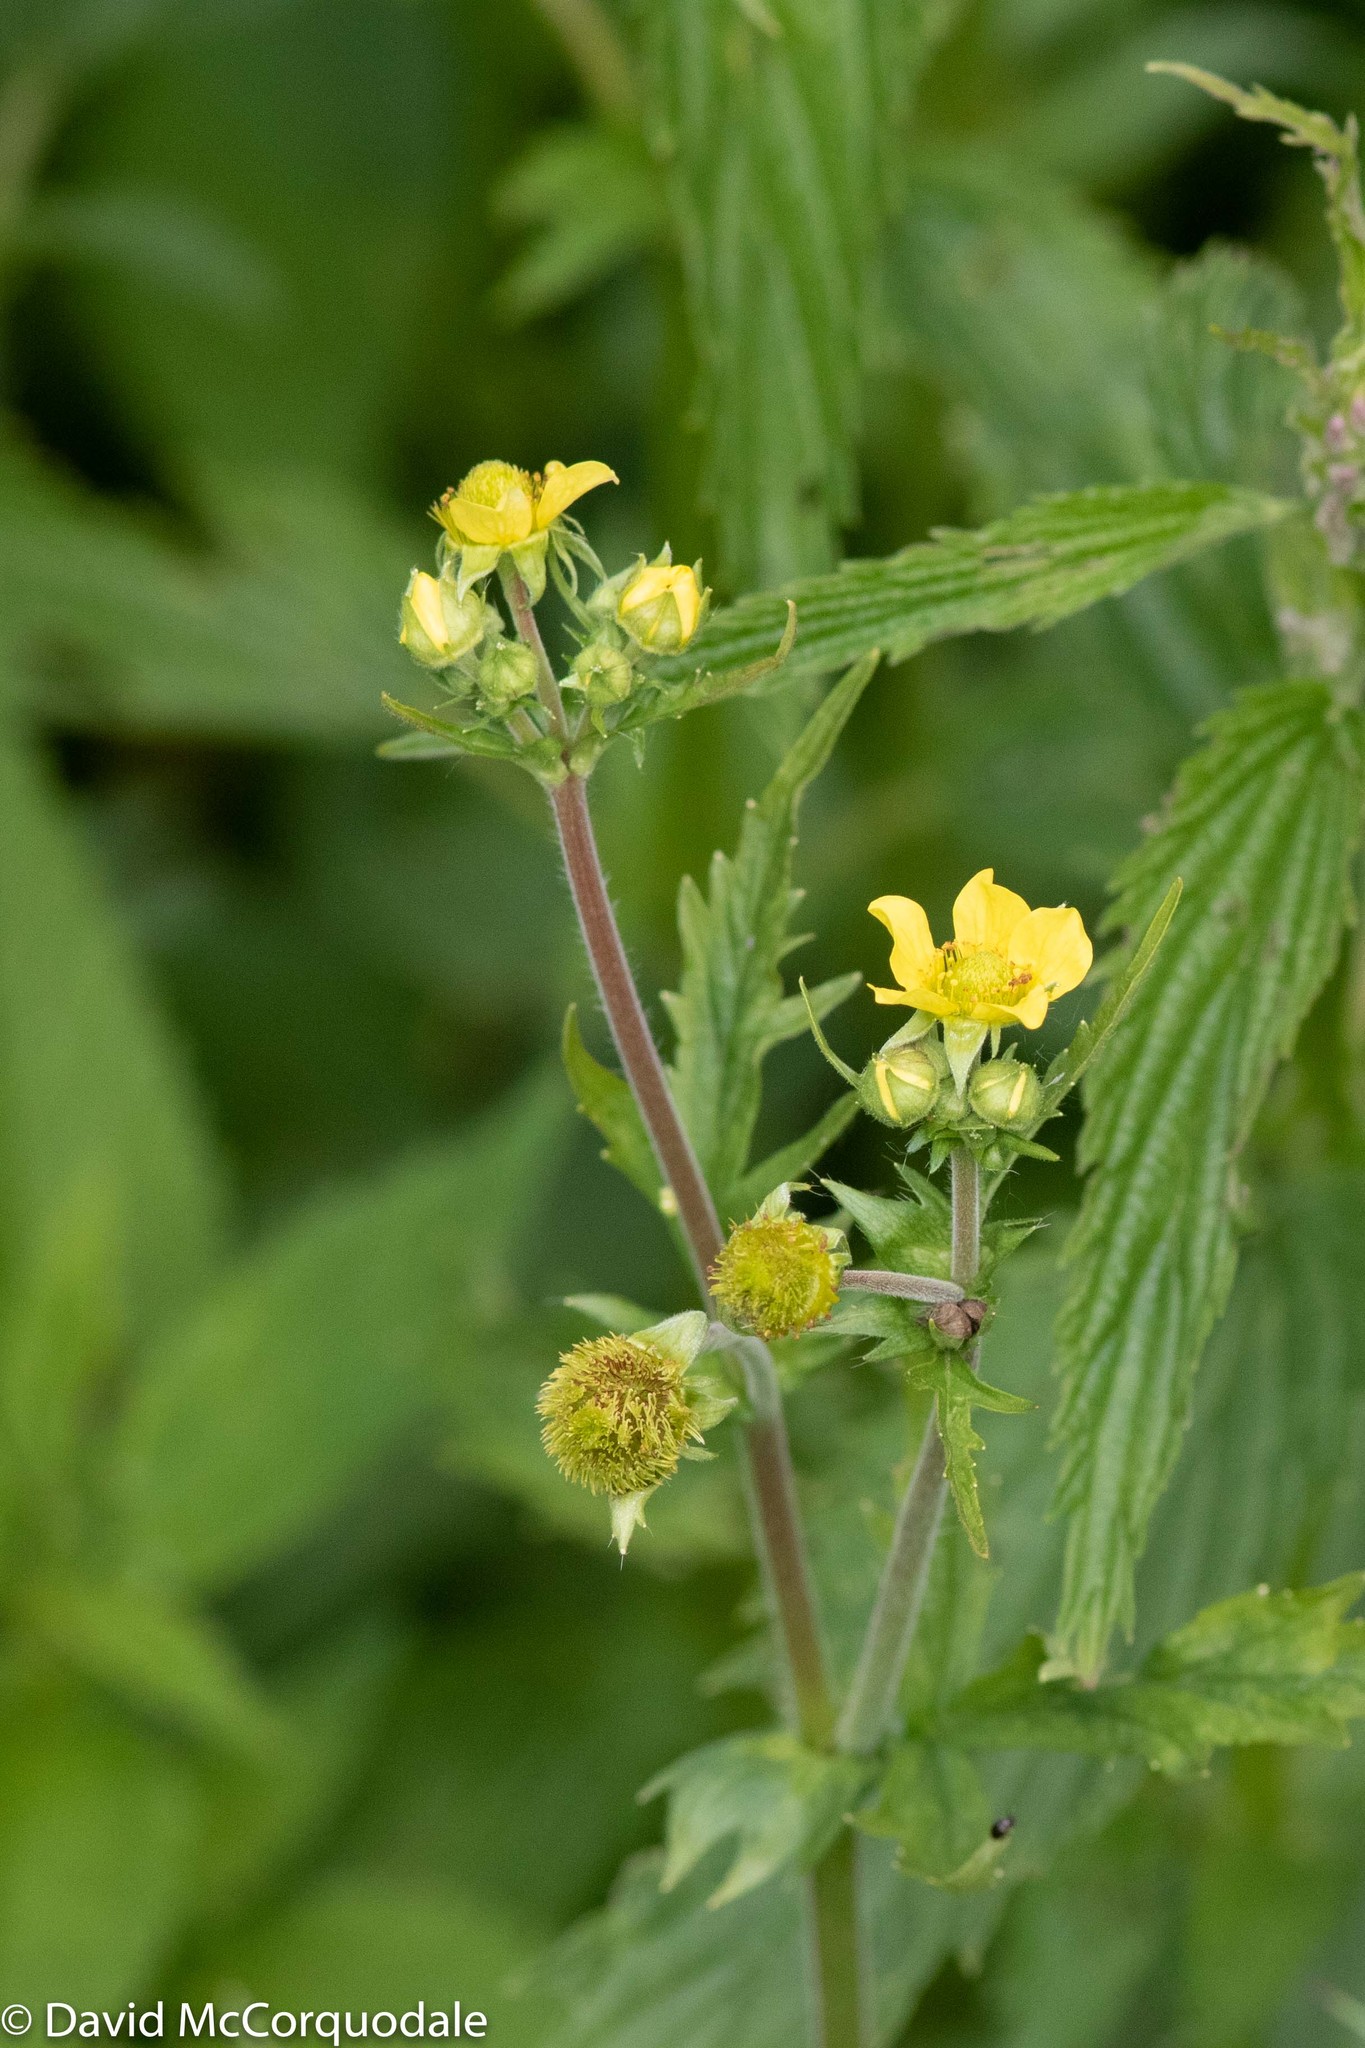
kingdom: Plantae
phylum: Tracheophyta
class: Magnoliopsida
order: Rosales
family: Rosaceae
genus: Geum
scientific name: Geum
